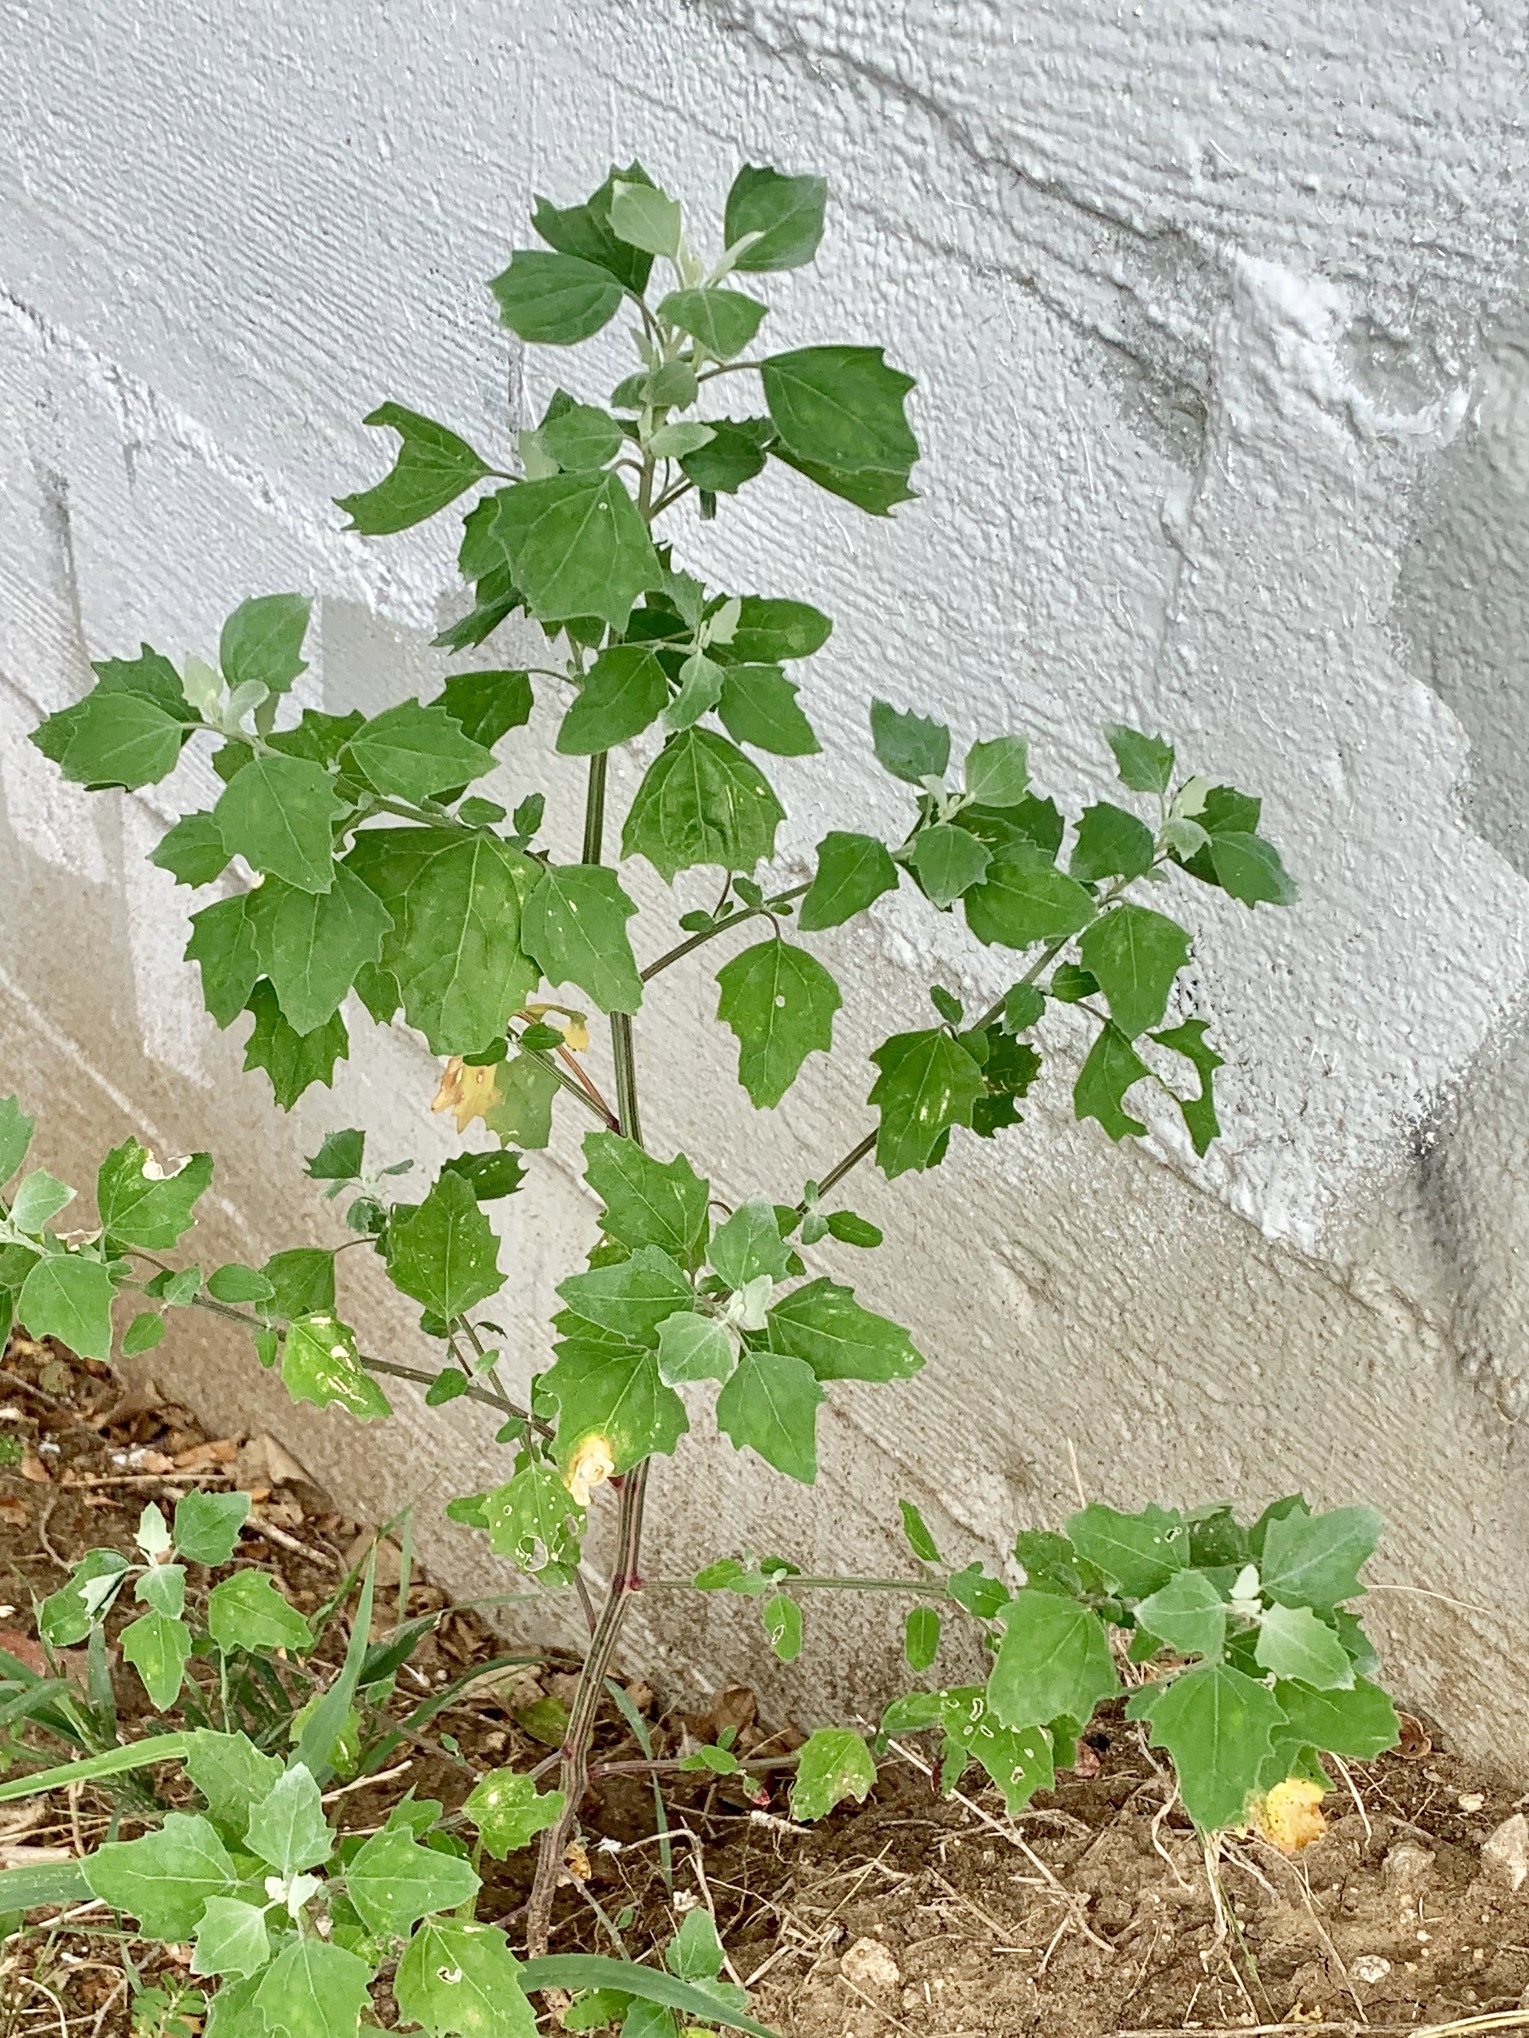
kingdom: Plantae
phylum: Tracheophyta
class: Magnoliopsida
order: Caryophyllales
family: Amaranthaceae
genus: Chenopodium
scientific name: Chenopodium album
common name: Fat-hen
